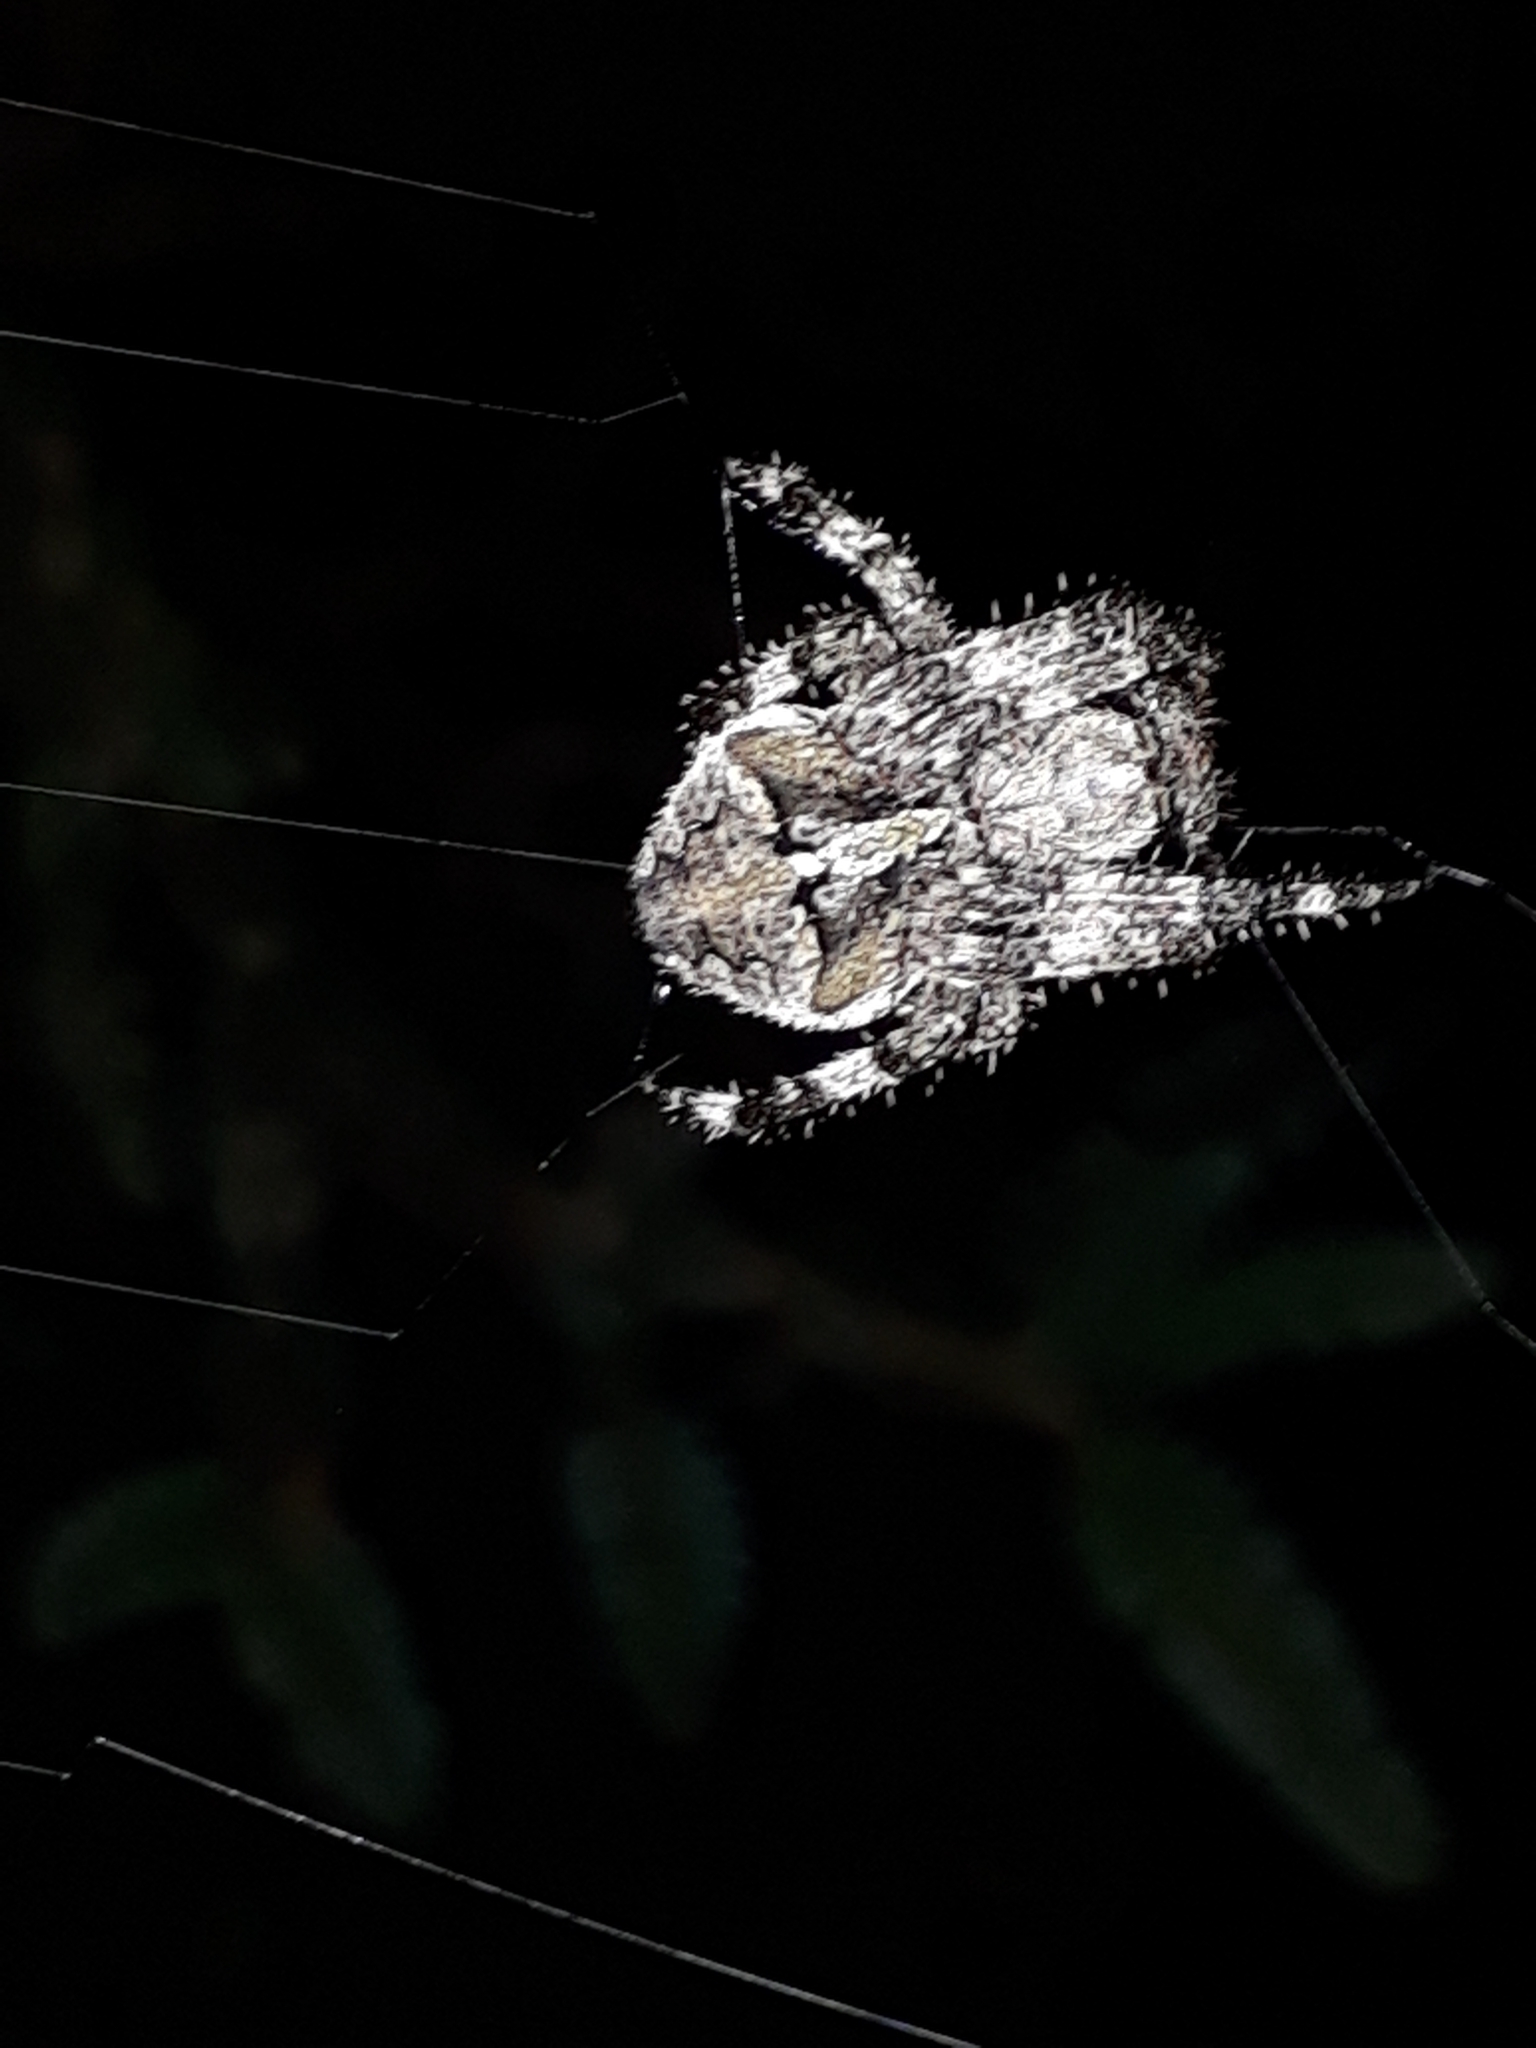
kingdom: Animalia
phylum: Arthropoda
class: Arachnida
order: Araneae
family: Araneidae
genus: Araneus
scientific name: Araneus angulatus
